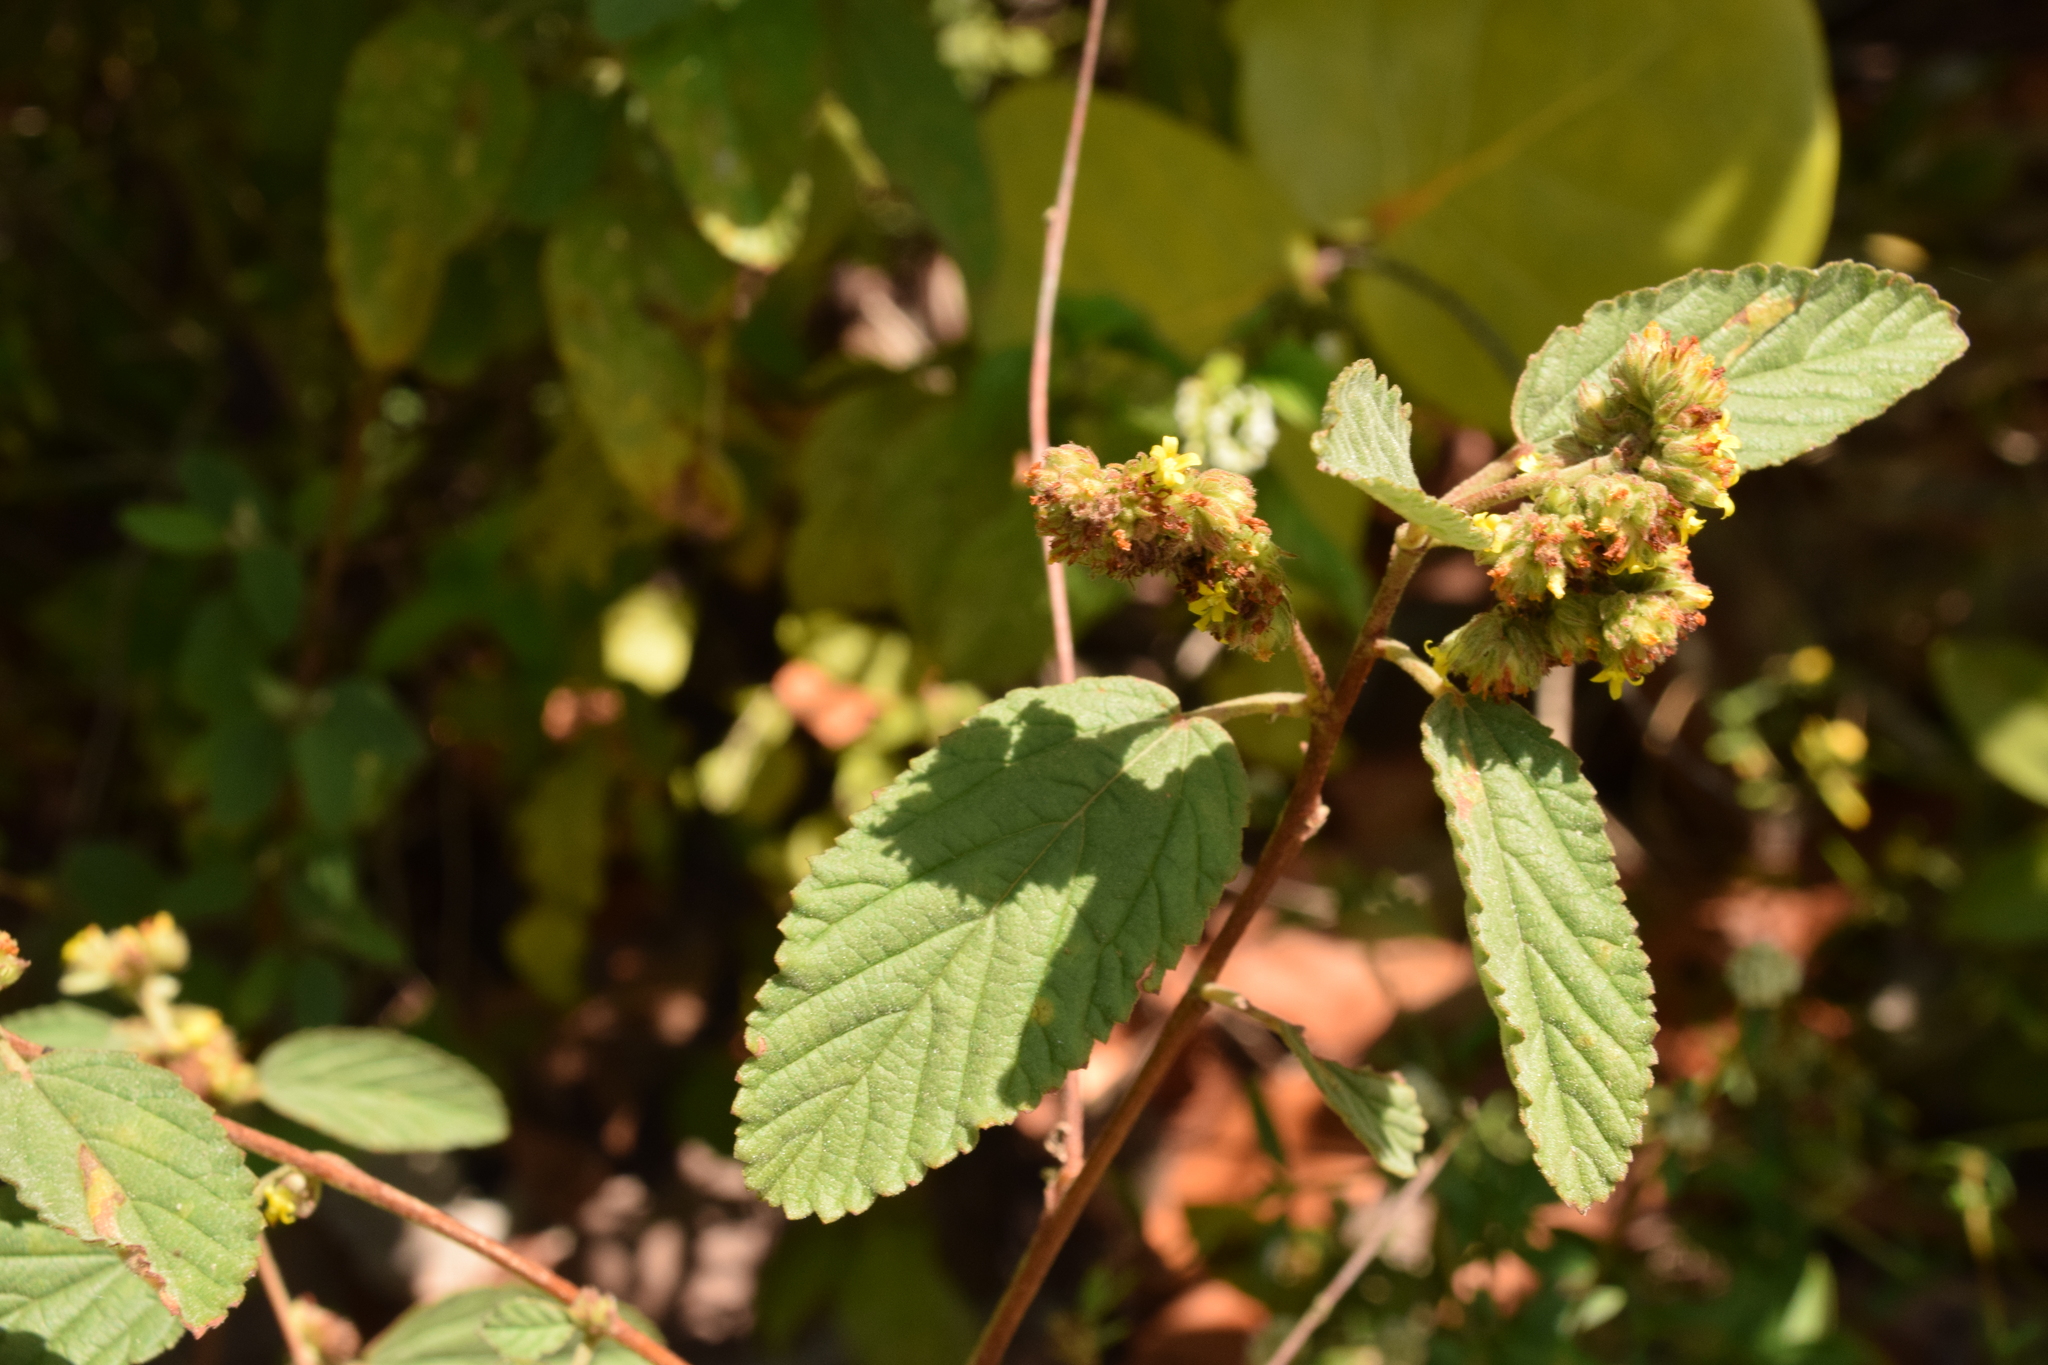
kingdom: Plantae
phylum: Tracheophyta
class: Magnoliopsida
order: Malvales
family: Malvaceae
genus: Waltheria
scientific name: Waltheria indica
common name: Leather-coat
